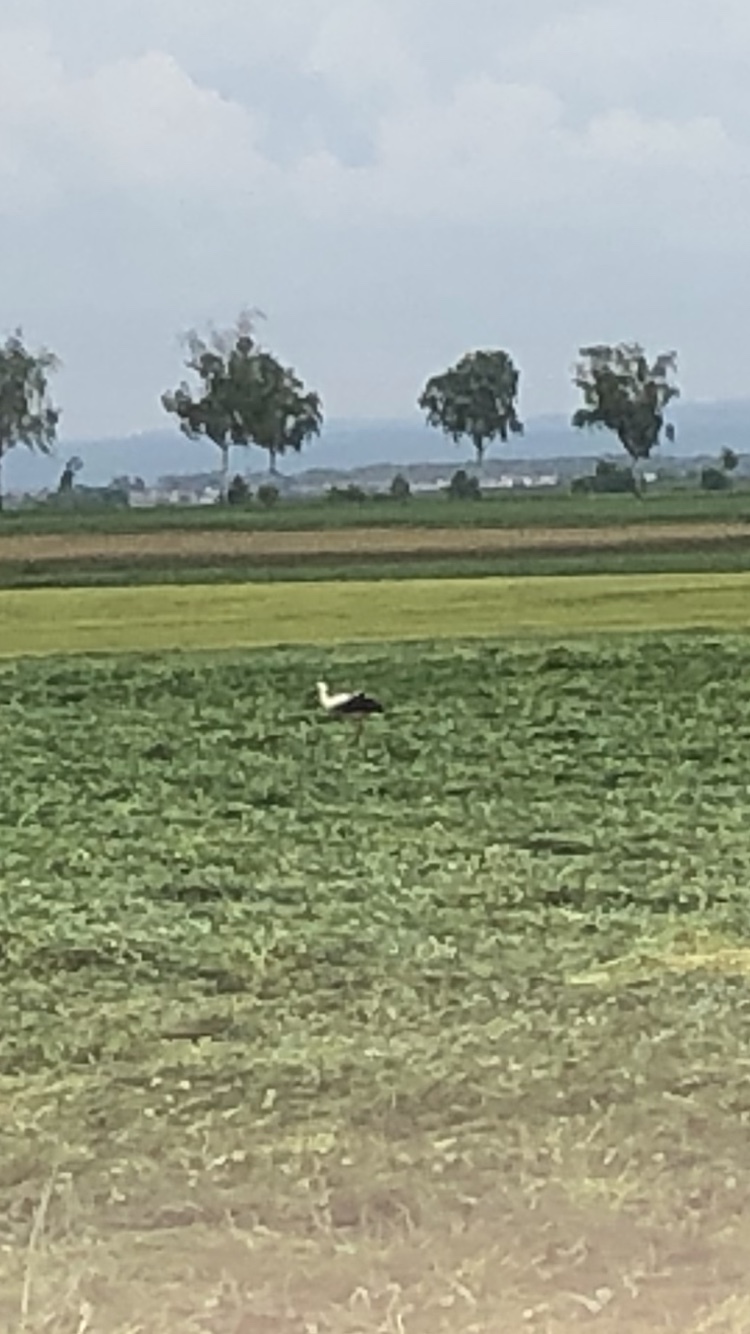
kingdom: Animalia
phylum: Chordata
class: Aves
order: Ciconiiformes
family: Ciconiidae
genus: Ciconia
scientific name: Ciconia ciconia
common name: White stork
